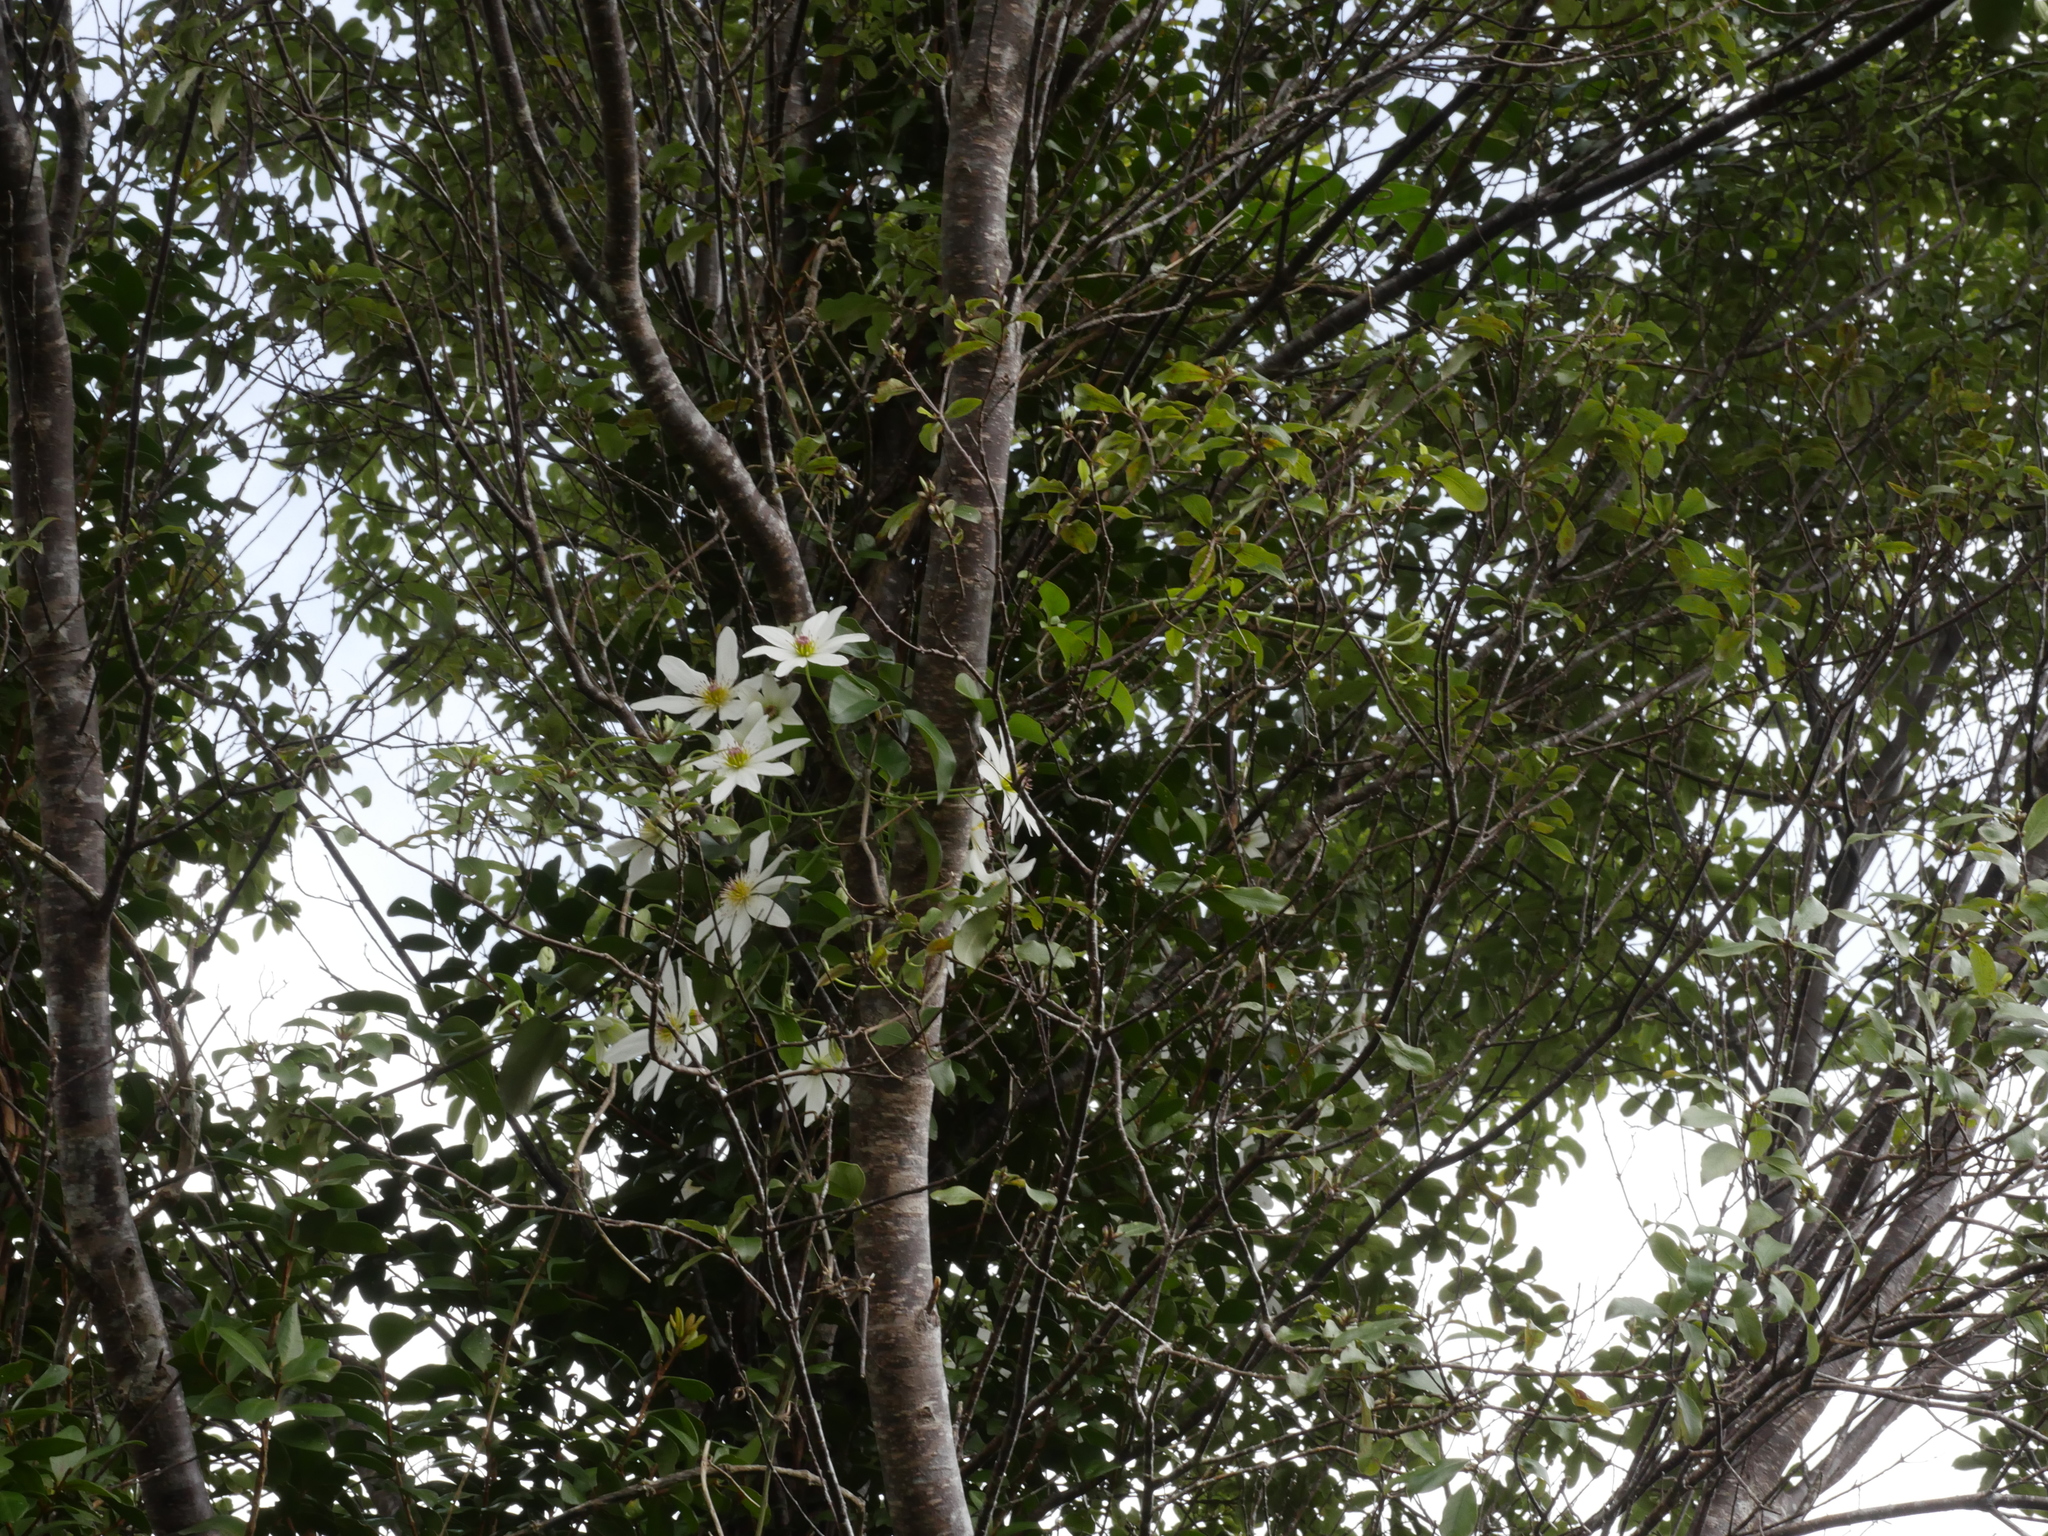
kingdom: Plantae
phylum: Tracheophyta
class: Magnoliopsida
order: Ranunculales
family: Ranunculaceae
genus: Clematis
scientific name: Clematis paniculata
